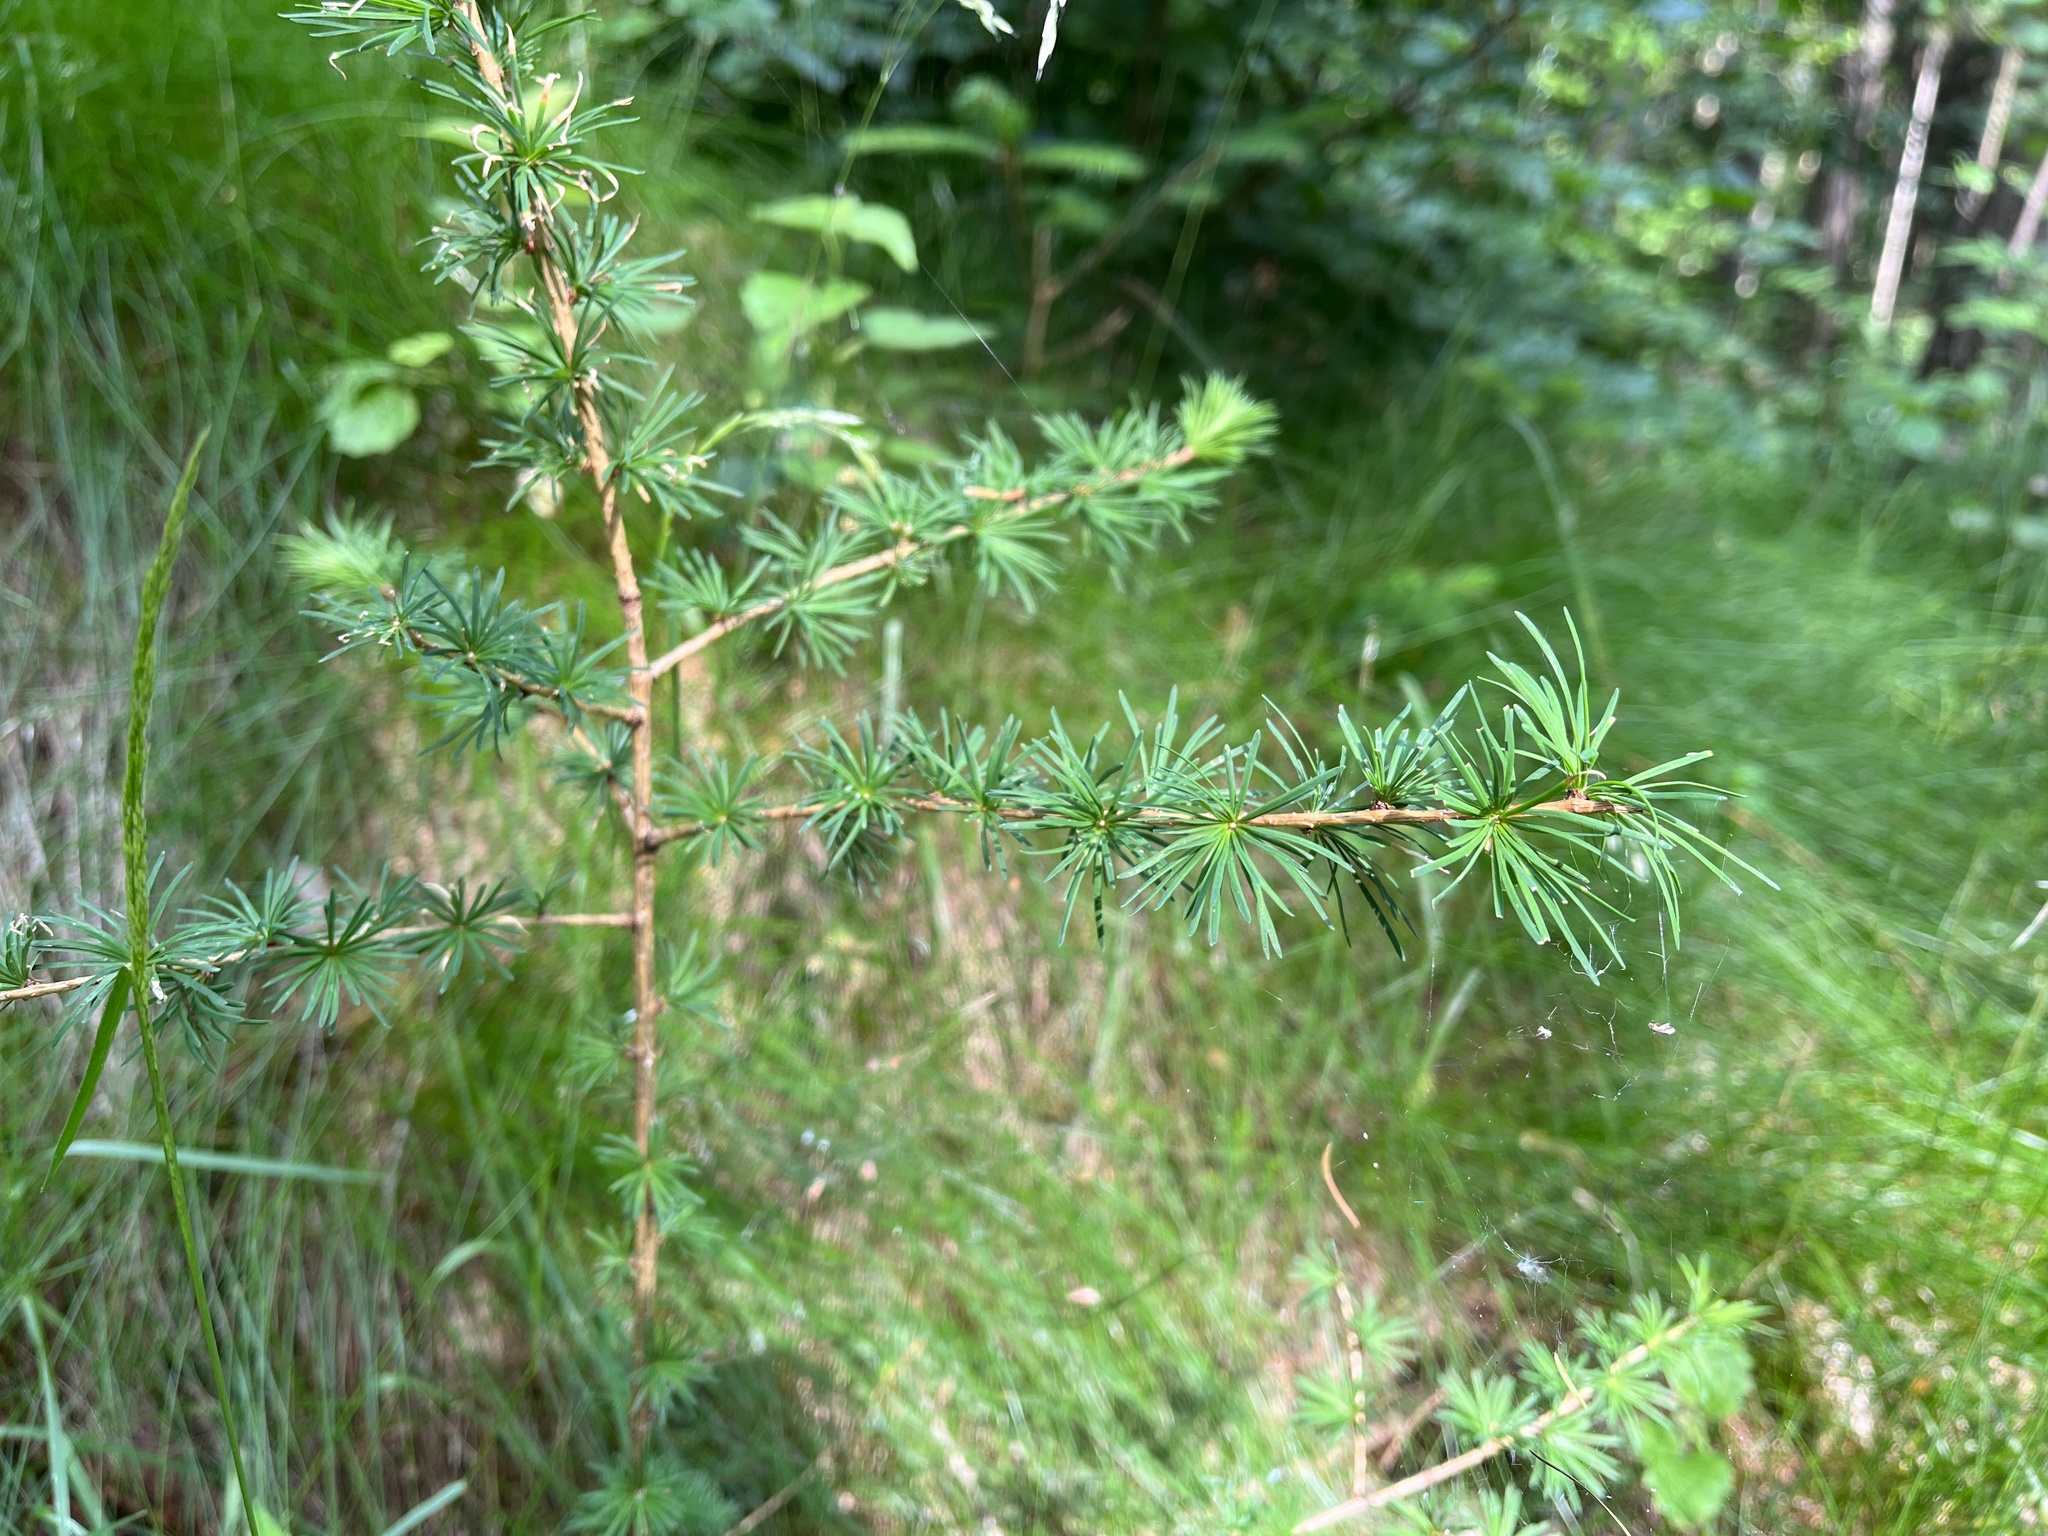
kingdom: Plantae
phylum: Tracheophyta
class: Pinopsida
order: Pinales
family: Pinaceae
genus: Larix
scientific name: Larix decidua
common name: European larch
